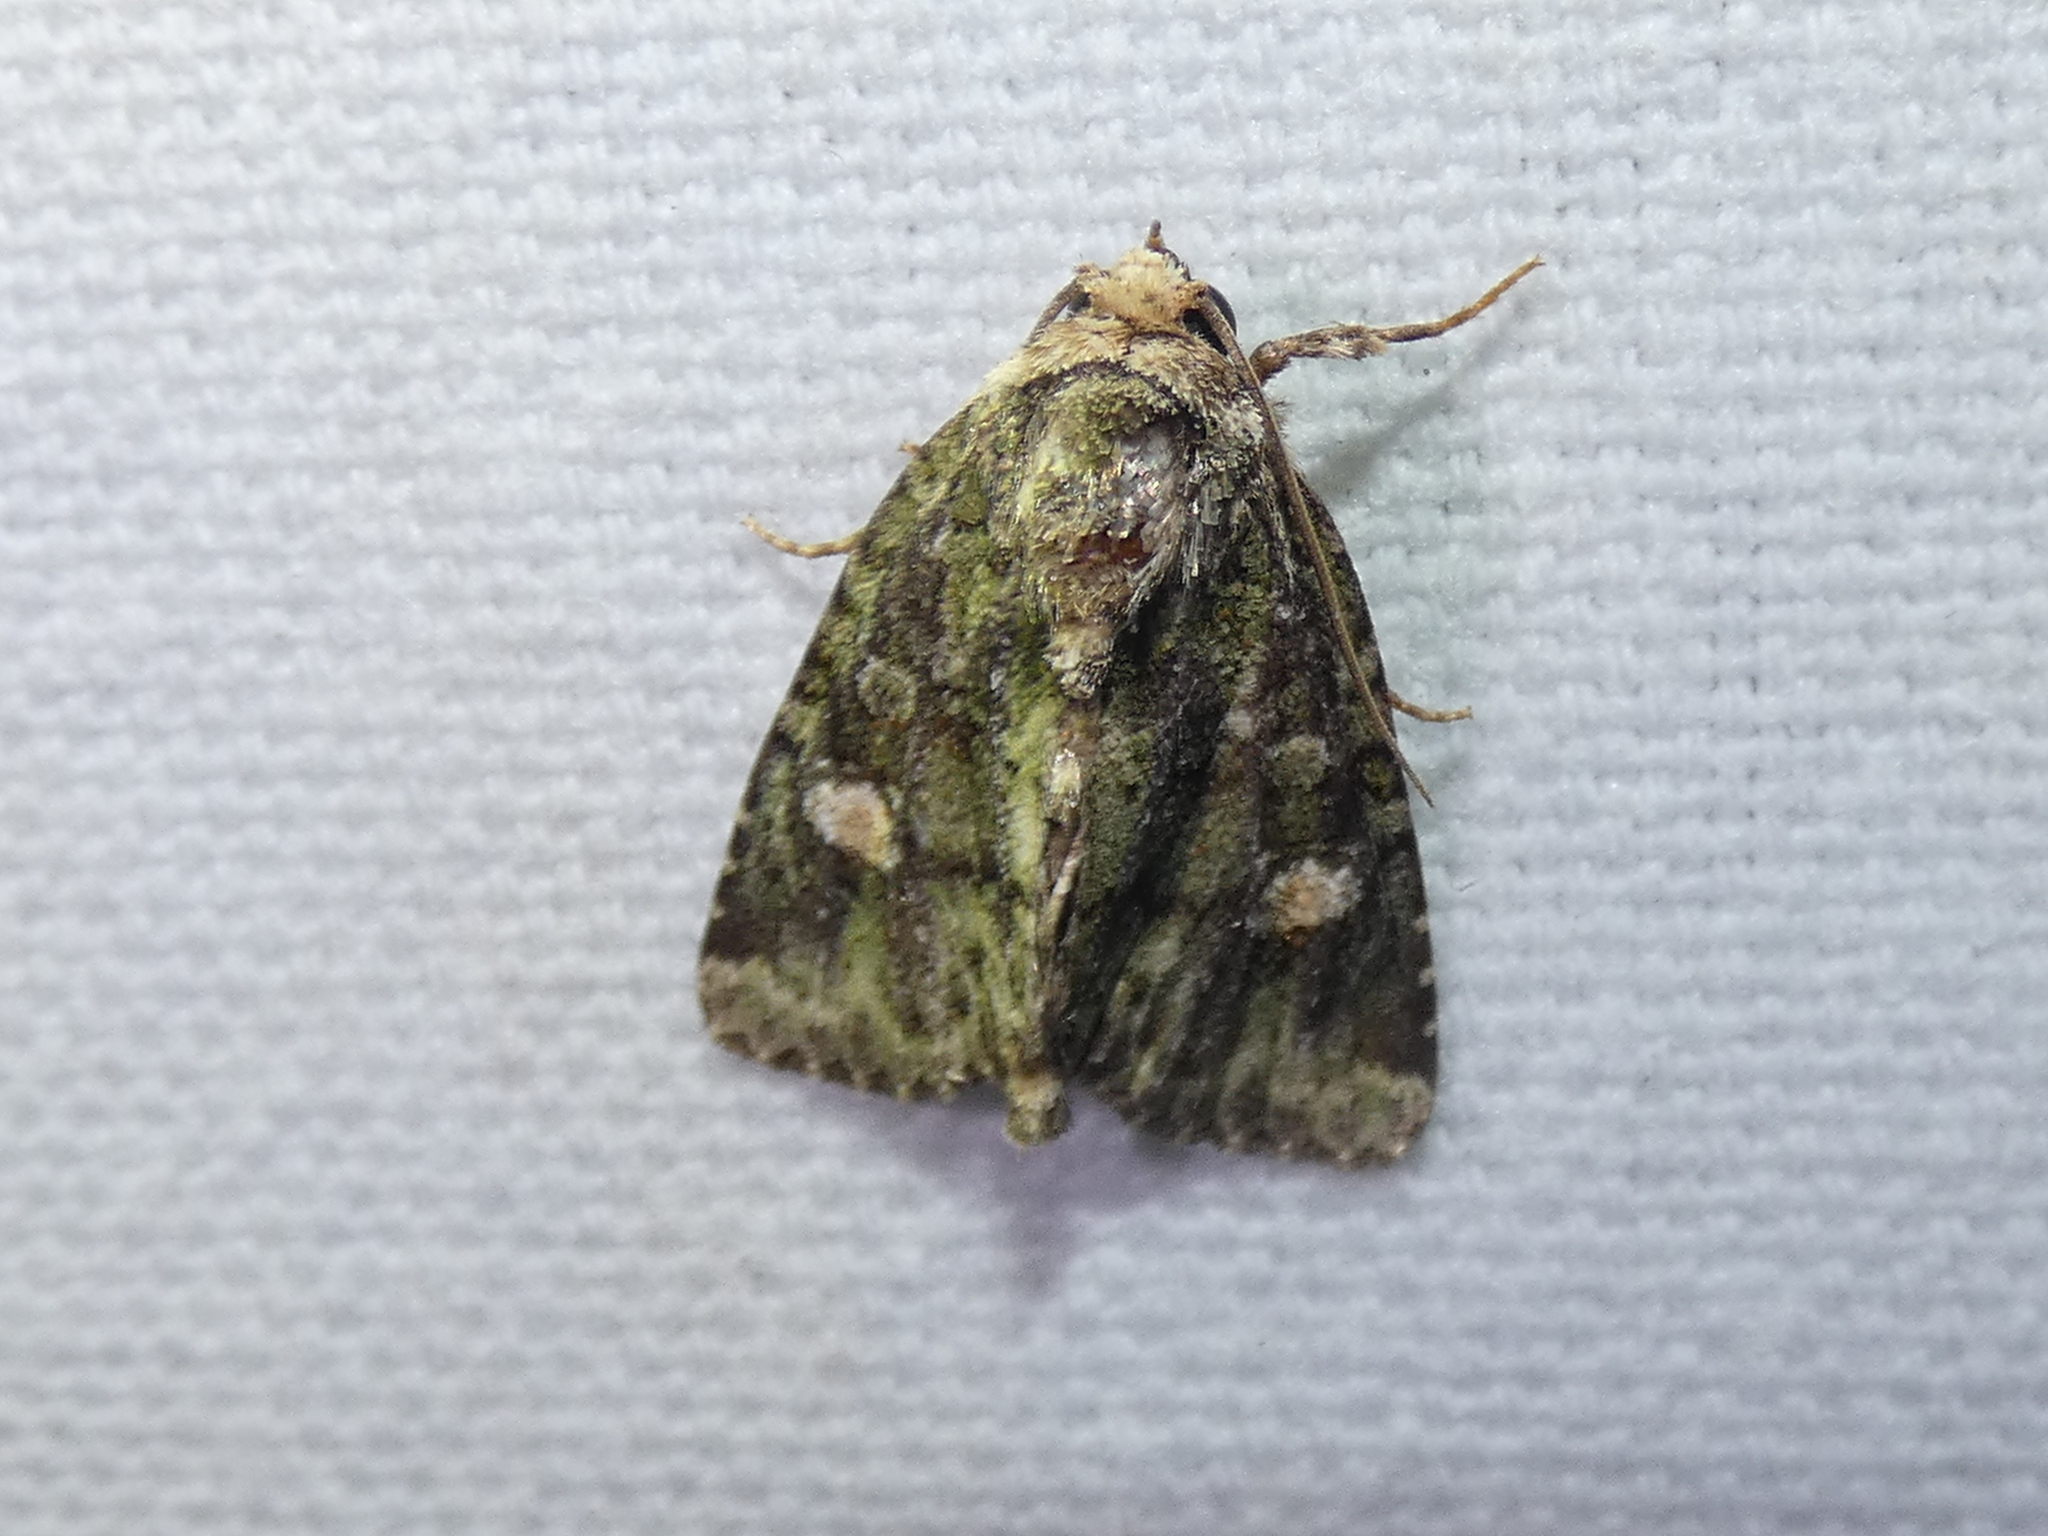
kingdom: Animalia
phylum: Arthropoda
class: Insecta
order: Lepidoptera
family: Noctuidae
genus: Phosphila
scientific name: Phosphila miselioides
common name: Spotted phosphila moth
